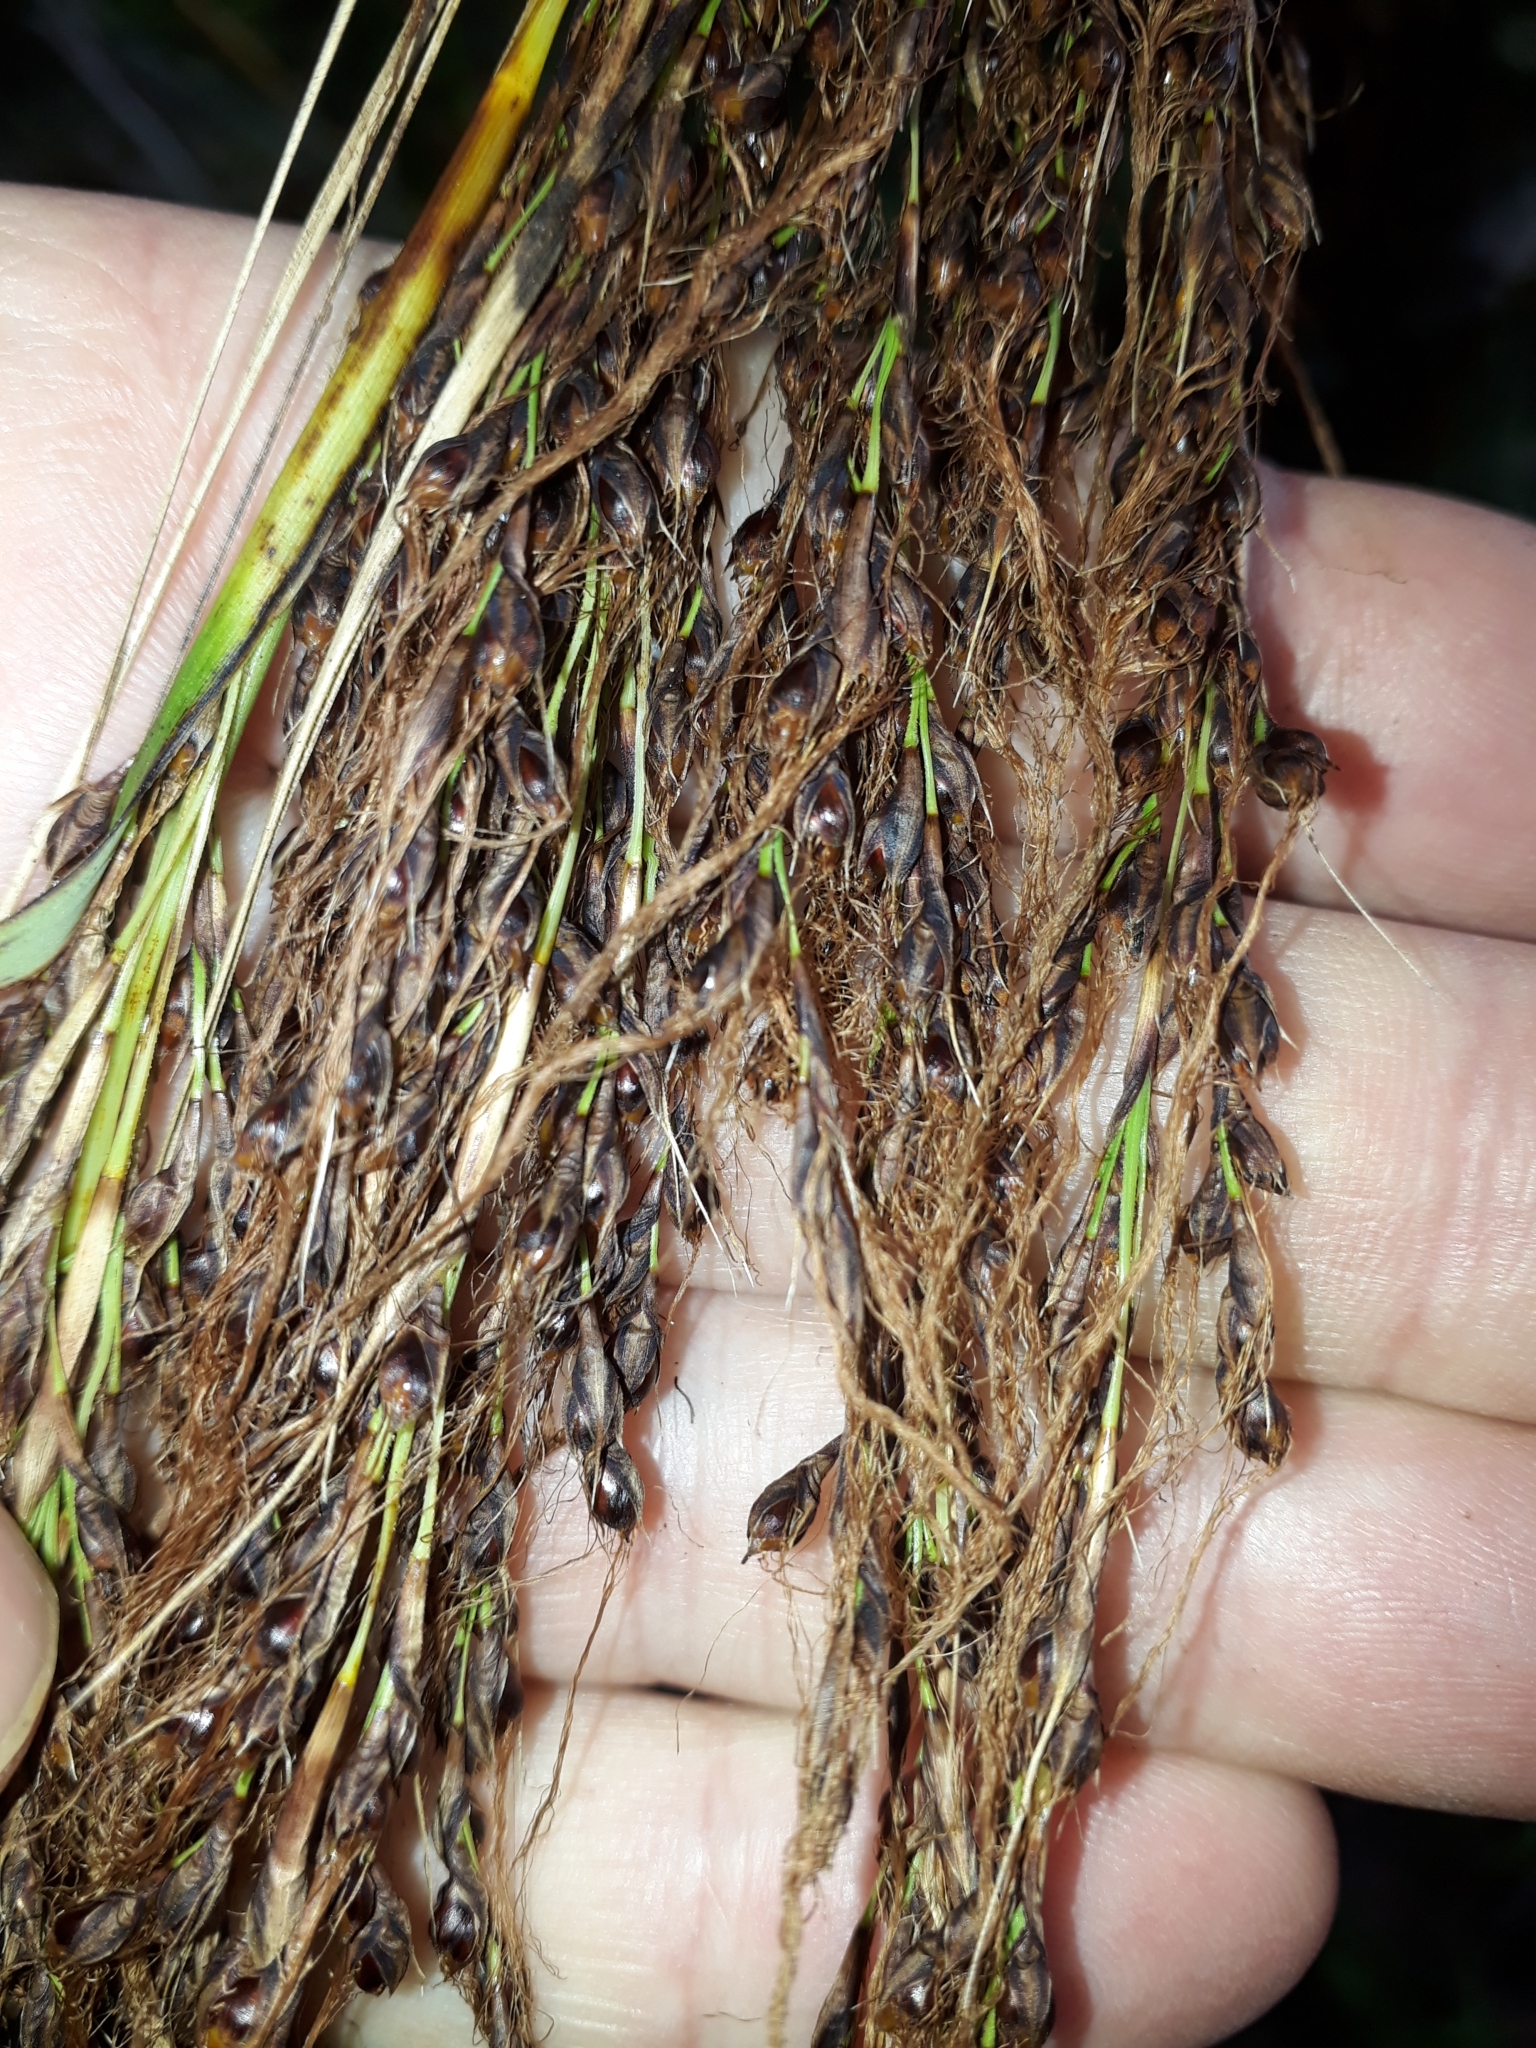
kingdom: Plantae
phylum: Tracheophyta
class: Liliopsida
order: Poales
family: Cyperaceae
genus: Gahnia
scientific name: Gahnia setifolia
